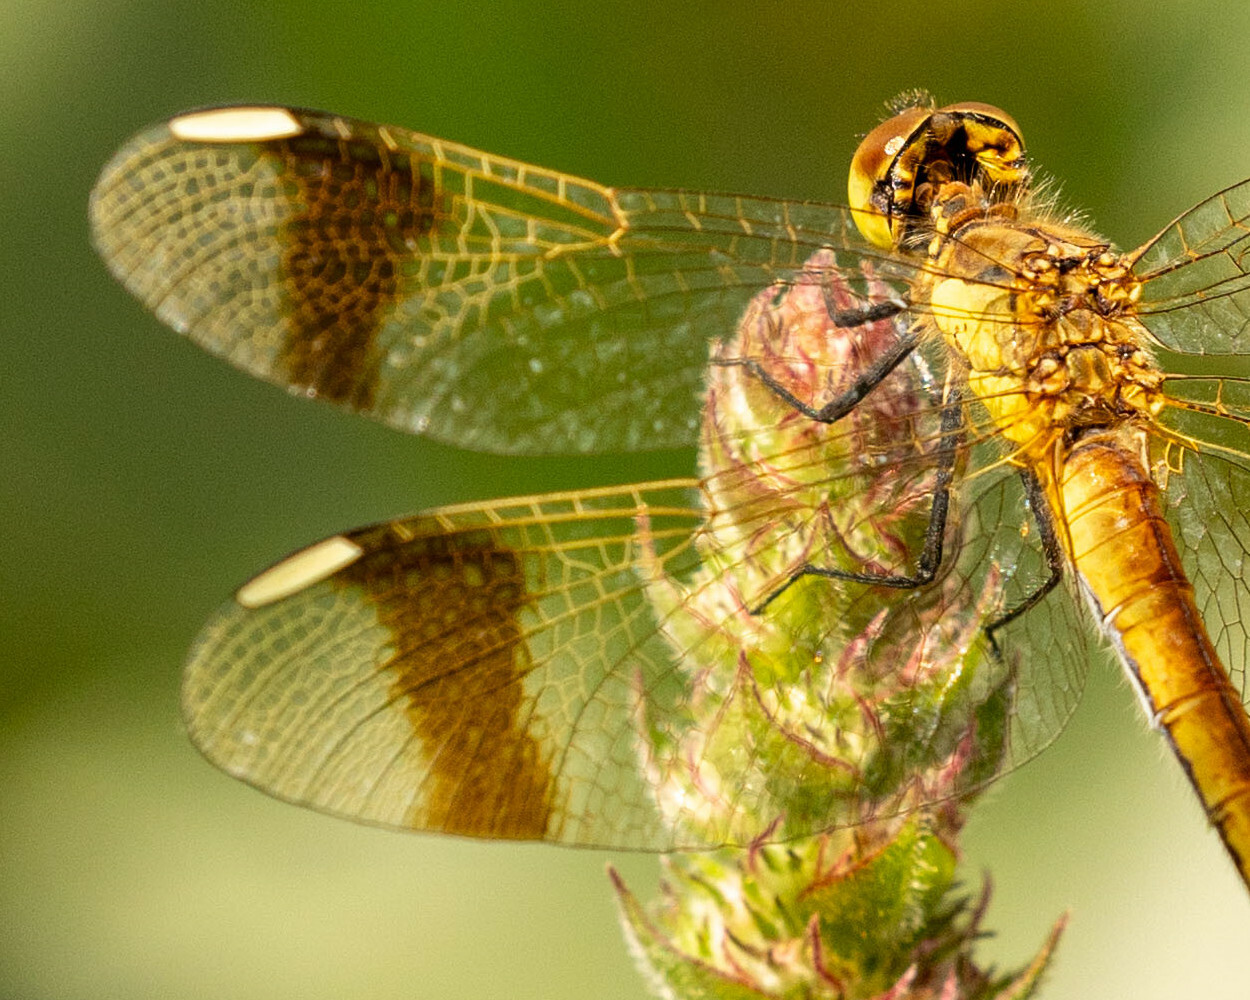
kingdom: Animalia
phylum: Arthropoda
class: Insecta
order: Odonata
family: Libellulidae
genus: Sympetrum
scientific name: Sympetrum pedemontanum
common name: Banded darter
